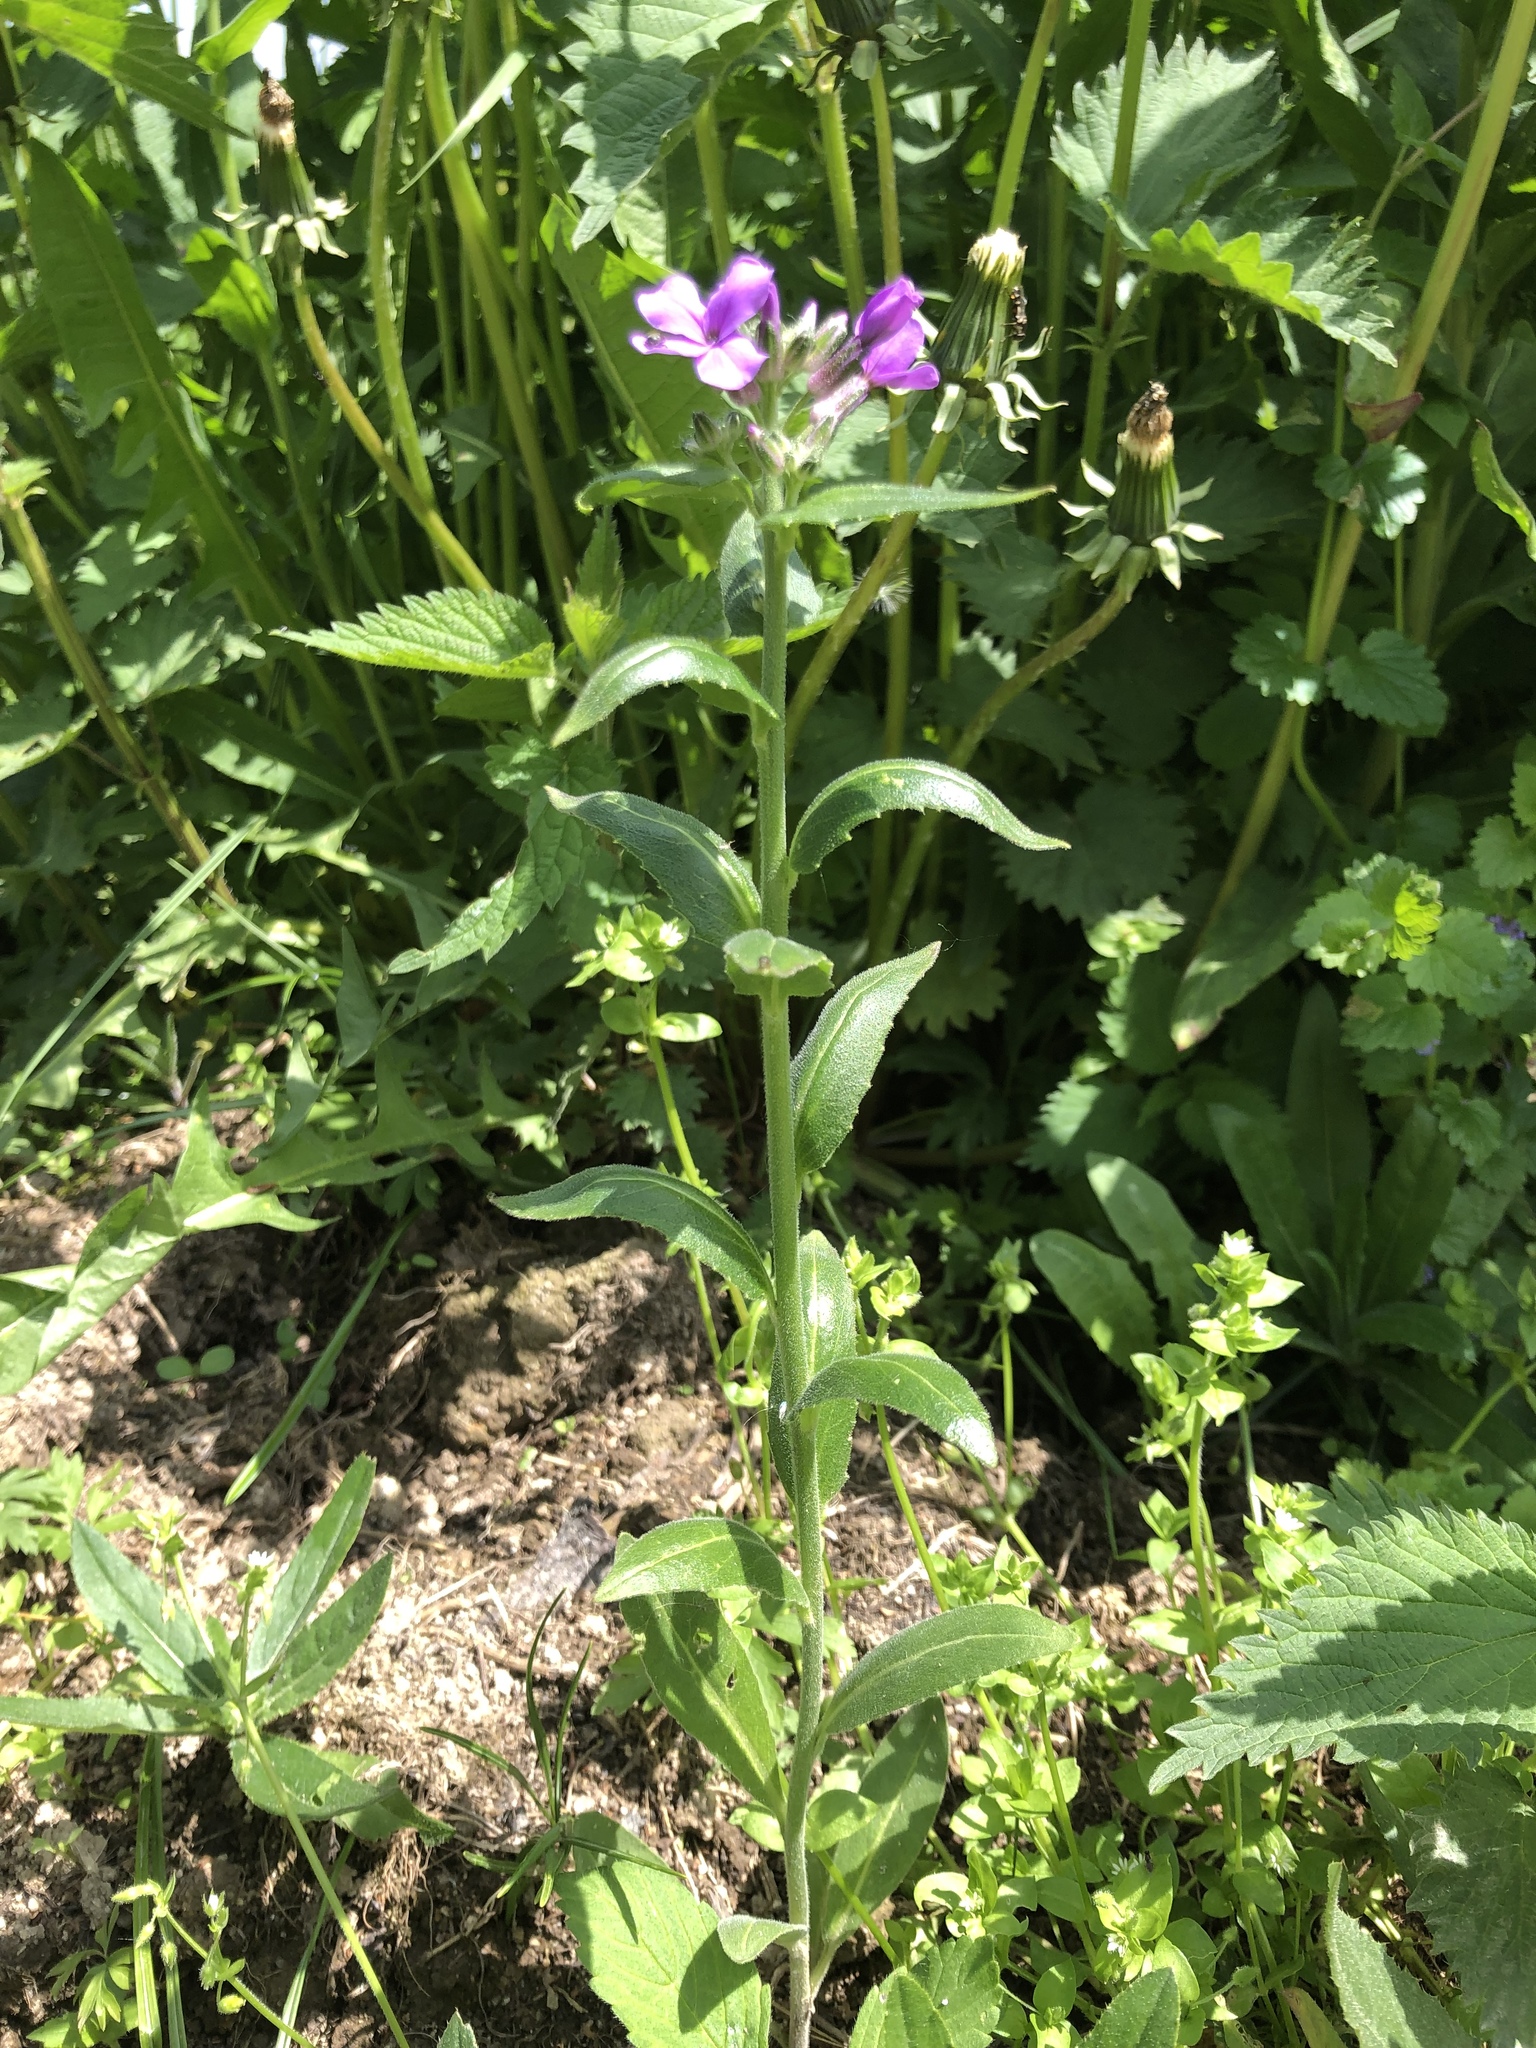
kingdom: Plantae
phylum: Tracheophyta
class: Magnoliopsida
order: Brassicales
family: Brassicaceae
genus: Hesperis
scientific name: Hesperis matronalis
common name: Dame's-violet
